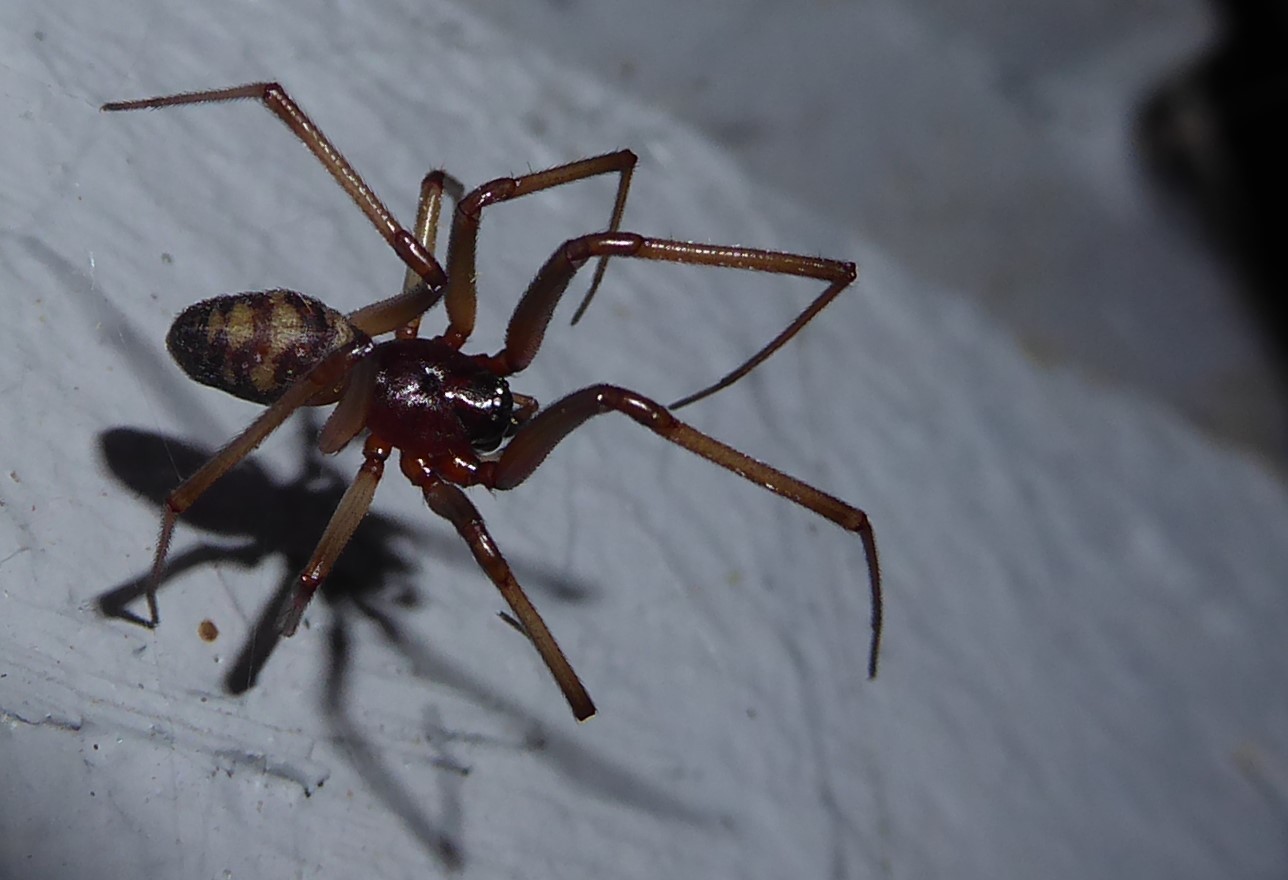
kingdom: Animalia
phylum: Arthropoda
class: Arachnida
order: Araneae
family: Theridiidae
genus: Steatoda
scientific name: Steatoda grossa
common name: False black widow
